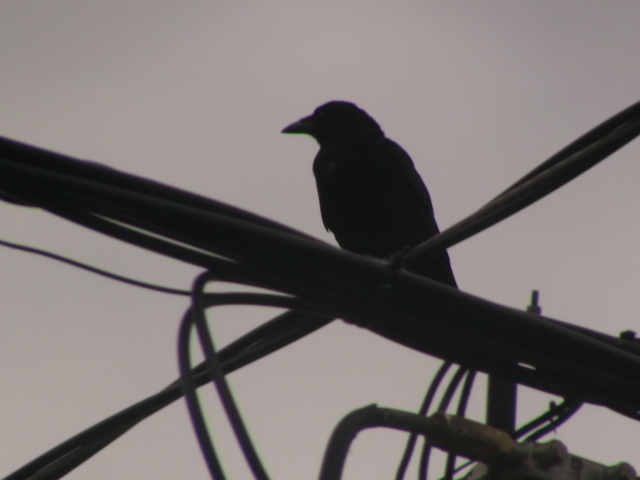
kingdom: Animalia
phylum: Chordata
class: Aves
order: Passeriformes
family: Corvidae
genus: Corvus
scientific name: Corvus brachyrhynchos
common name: American crow
